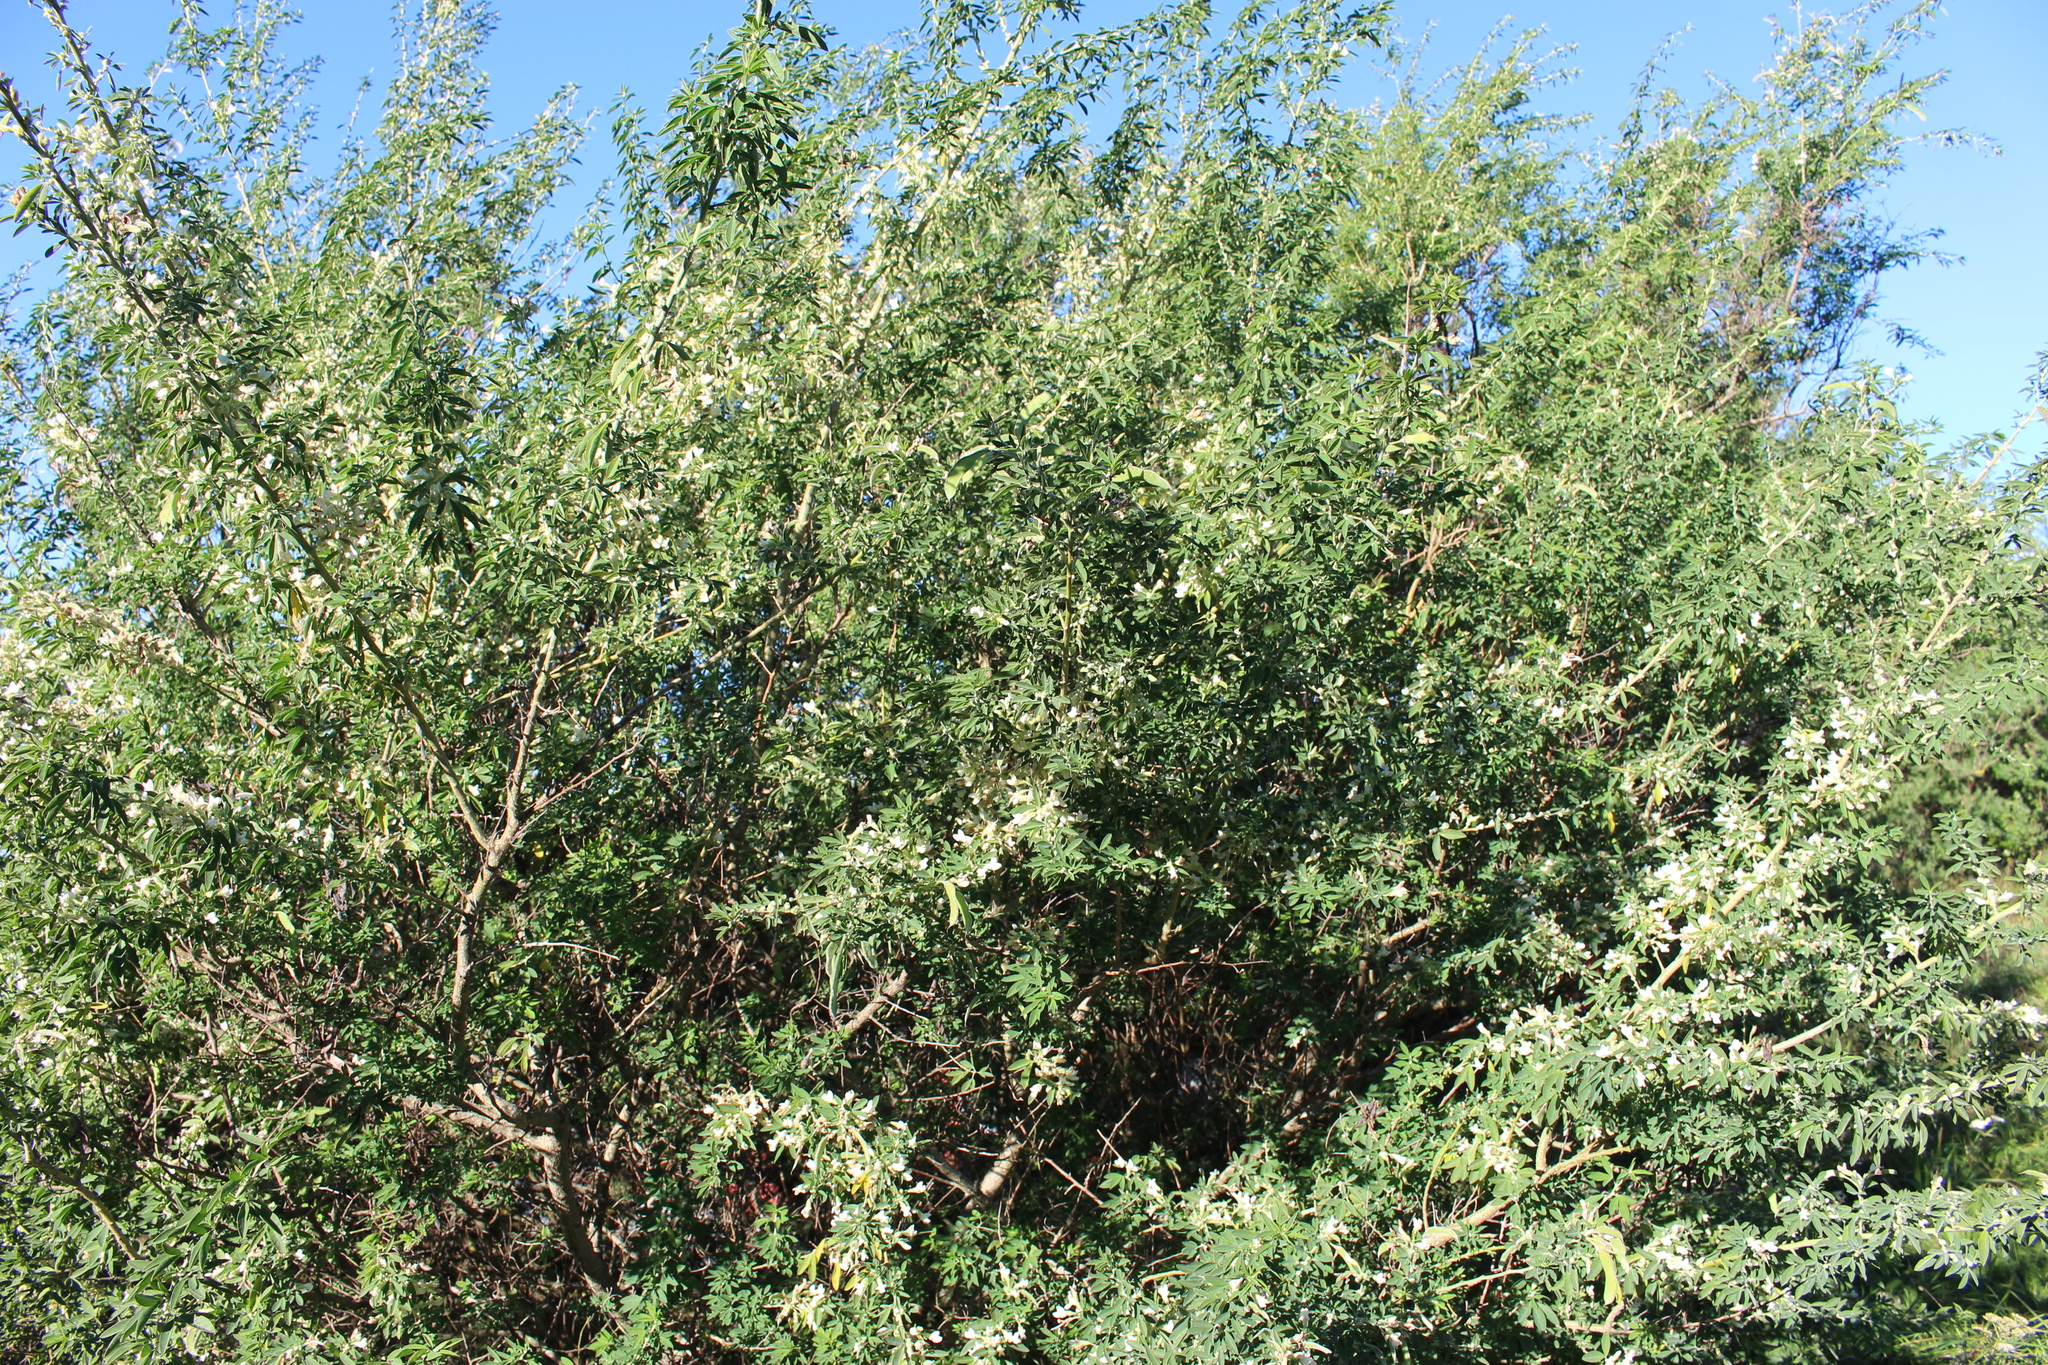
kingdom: Plantae
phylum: Tracheophyta
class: Magnoliopsida
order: Fabales
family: Fabaceae
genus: Chamaecytisus
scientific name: Chamaecytisus prolifer
